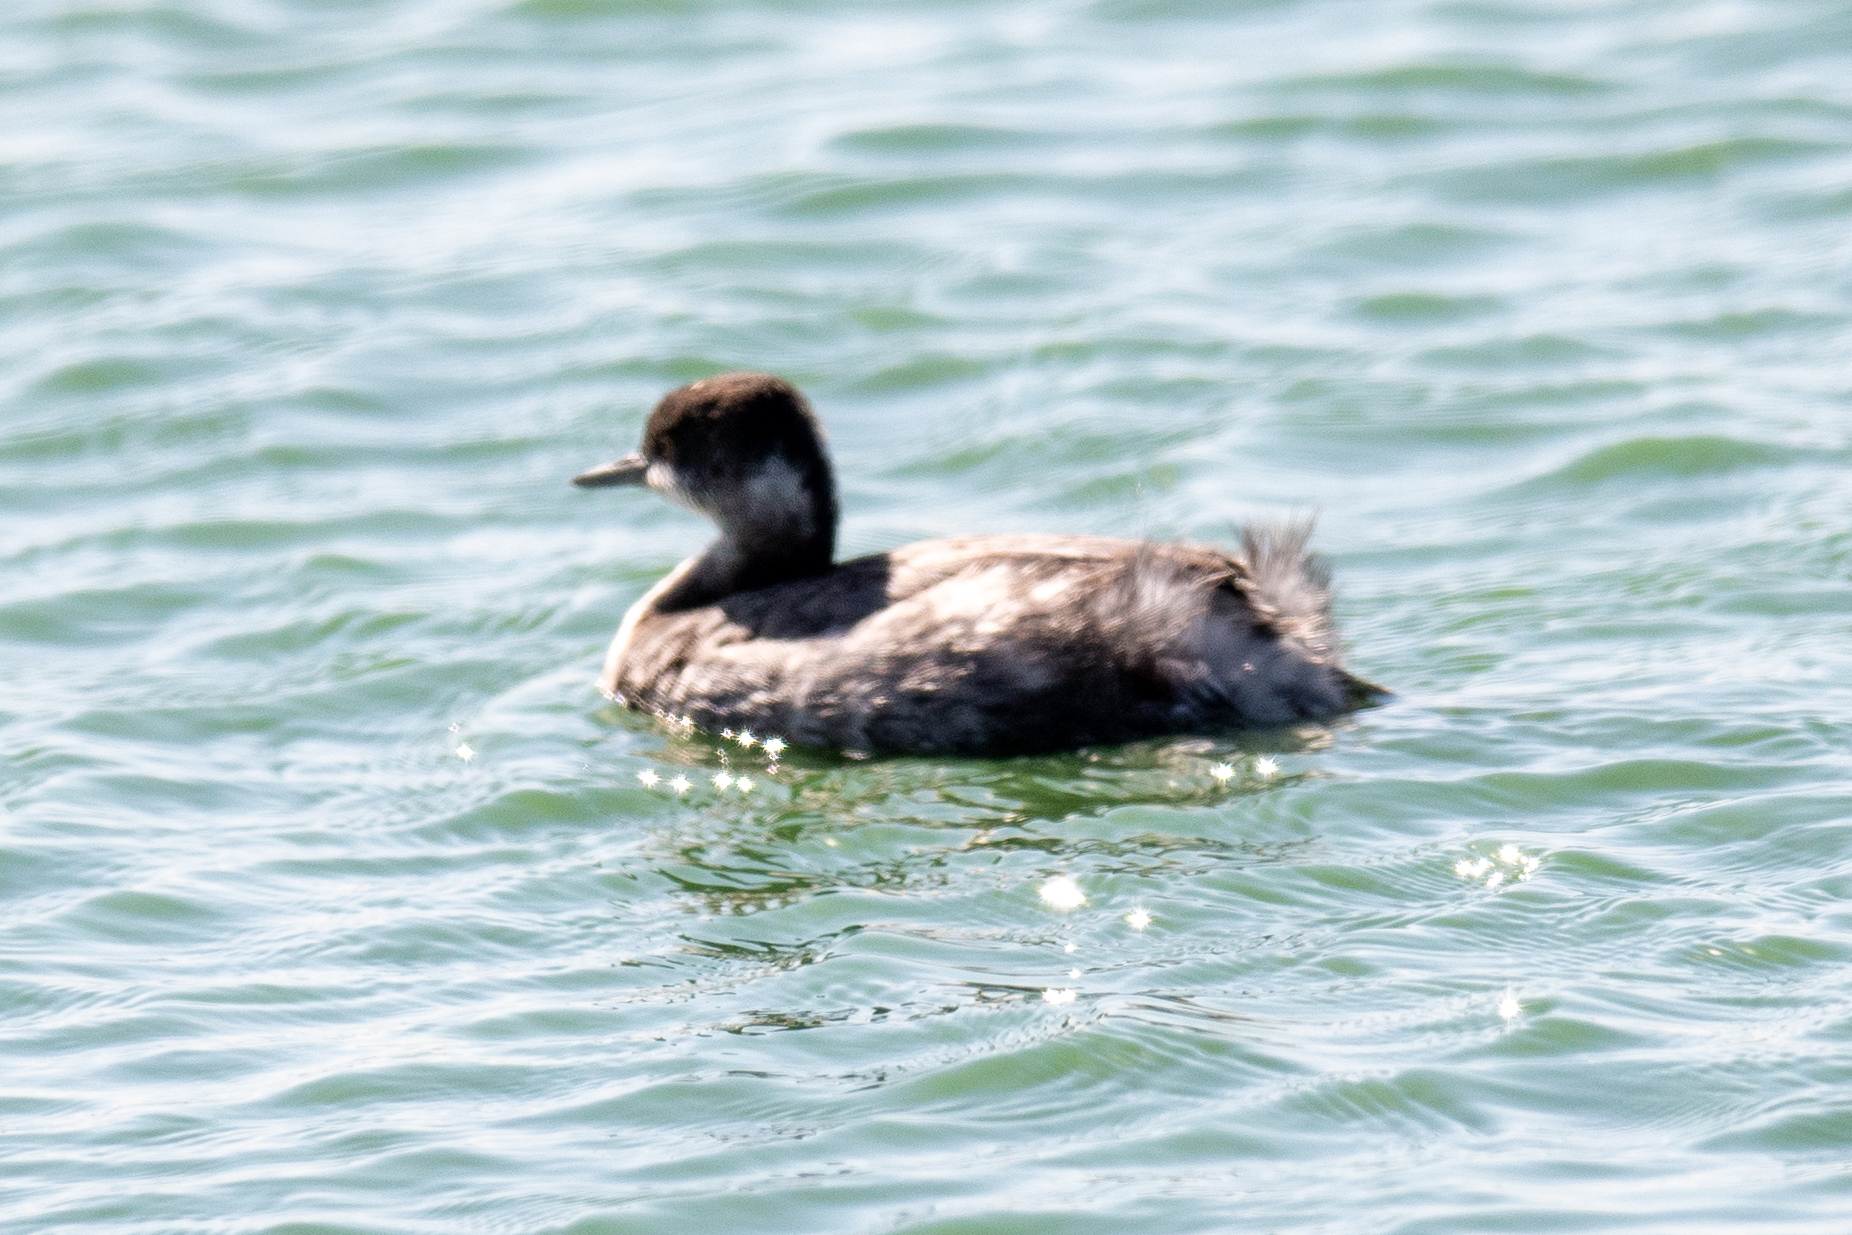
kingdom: Animalia
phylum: Chordata
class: Aves
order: Podicipediformes
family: Podicipedidae
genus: Podiceps
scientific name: Podiceps nigricollis
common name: Black-necked grebe
